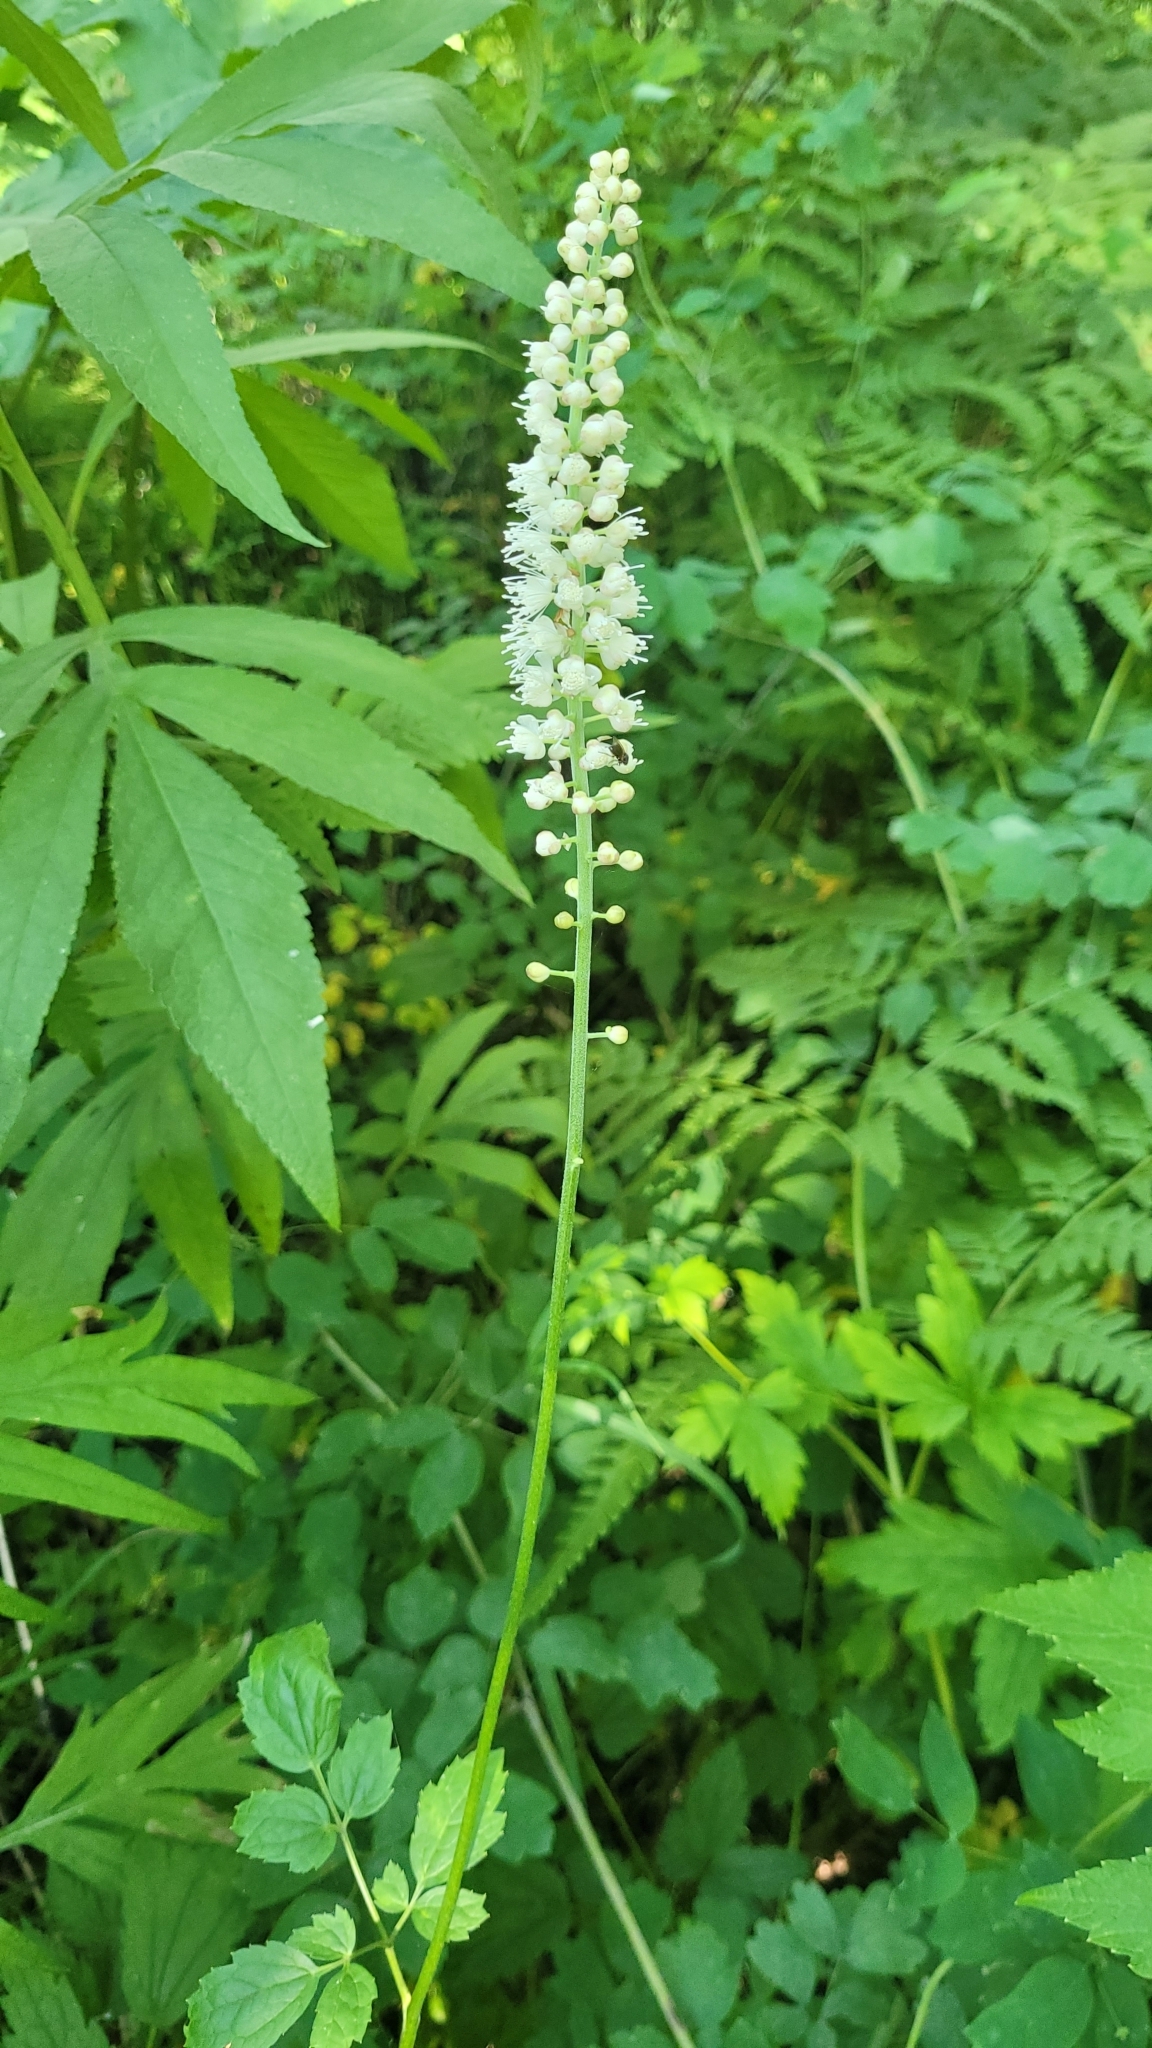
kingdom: Plantae
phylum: Tracheophyta
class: Magnoliopsida
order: Ranunculales
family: Ranunculaceae
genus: Actaea
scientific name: Actaea simplex
